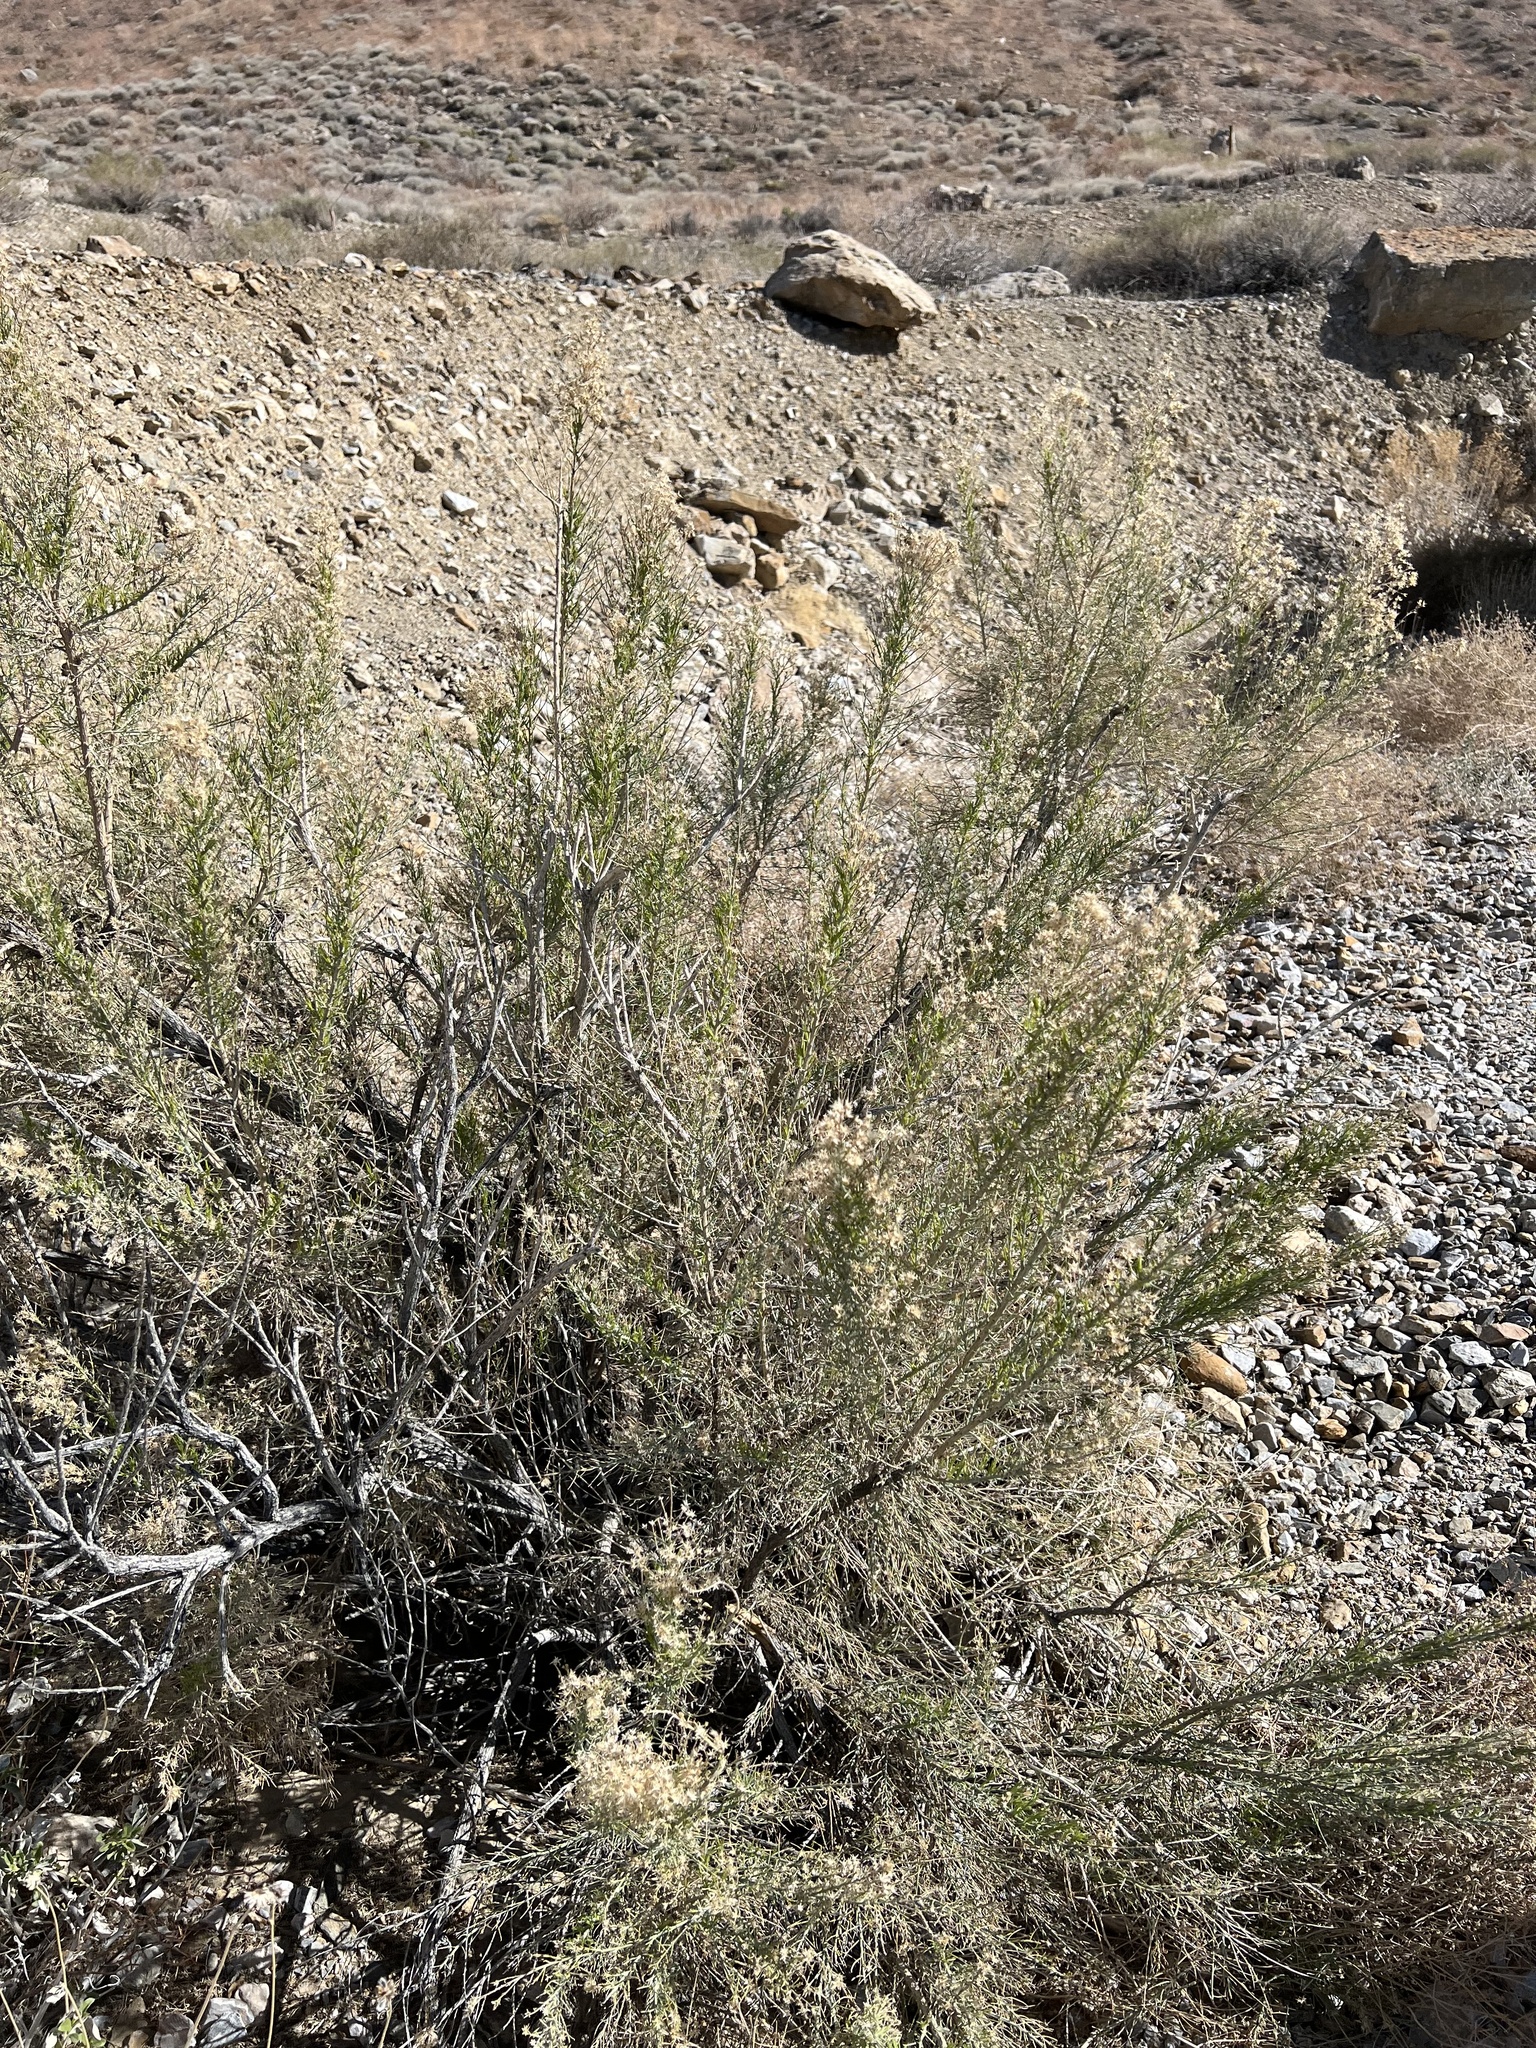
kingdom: Plantae
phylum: Tracheophyta
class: Magnoliopsida
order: Asterales
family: Asteraceae
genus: Ericameria
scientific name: Ericameria paniculata
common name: Punctate rabbitbrush
